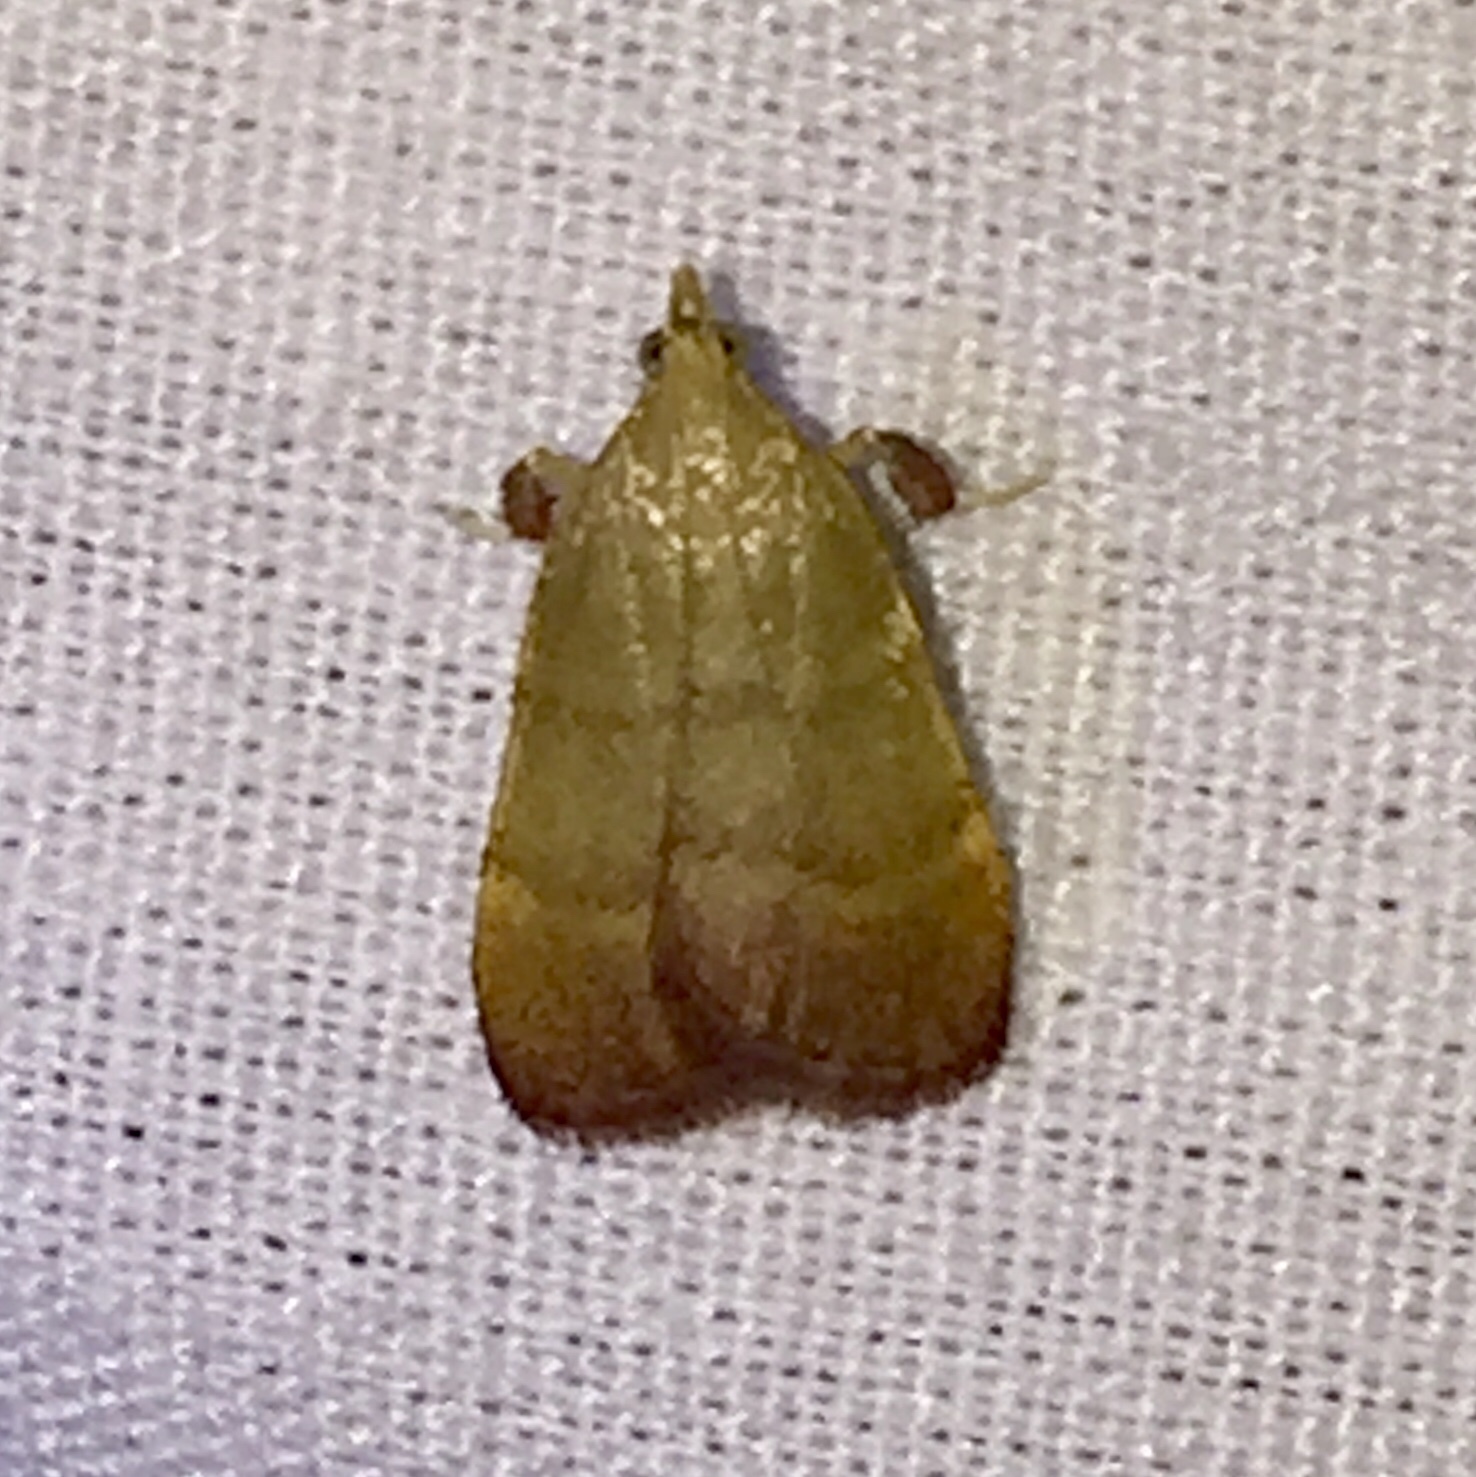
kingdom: Animalia
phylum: Arthropoda
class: Insecta
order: Lepidoptera
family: Pyralidae
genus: Condylolomia
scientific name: Condylolomia participialis
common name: Drab condylolomia moth
